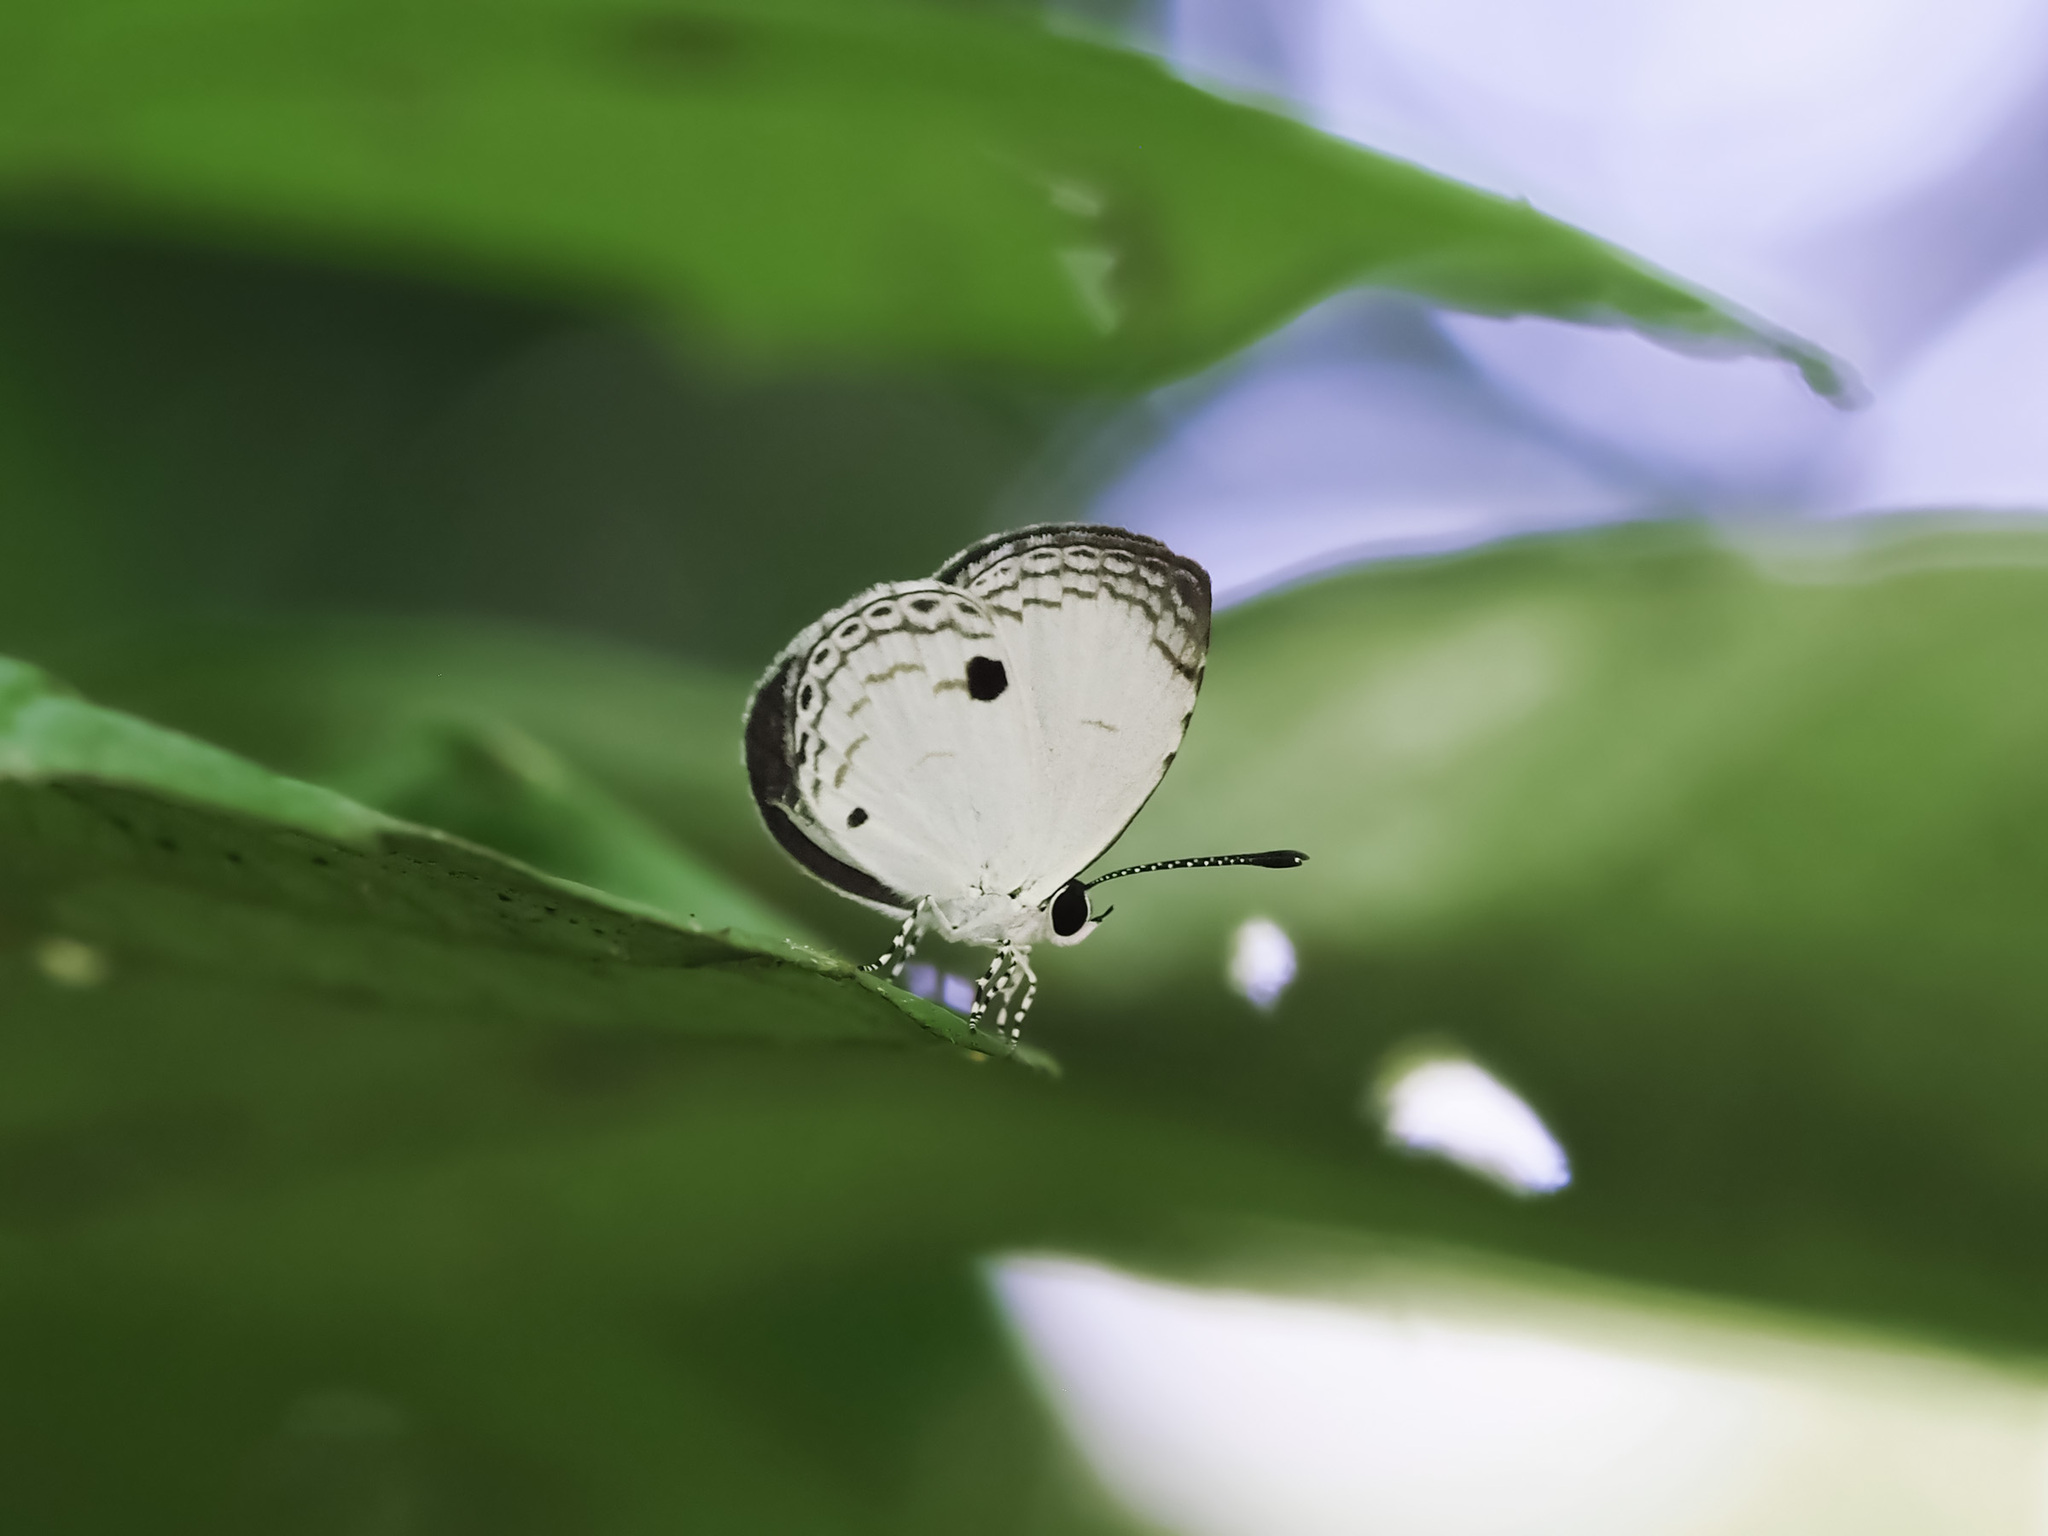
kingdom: Animalia
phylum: Arthropoda
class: Insecta
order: Lepidoptera
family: Lycaenidae
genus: Neopithecops
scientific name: Neopithecops zalmora
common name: Quaker
